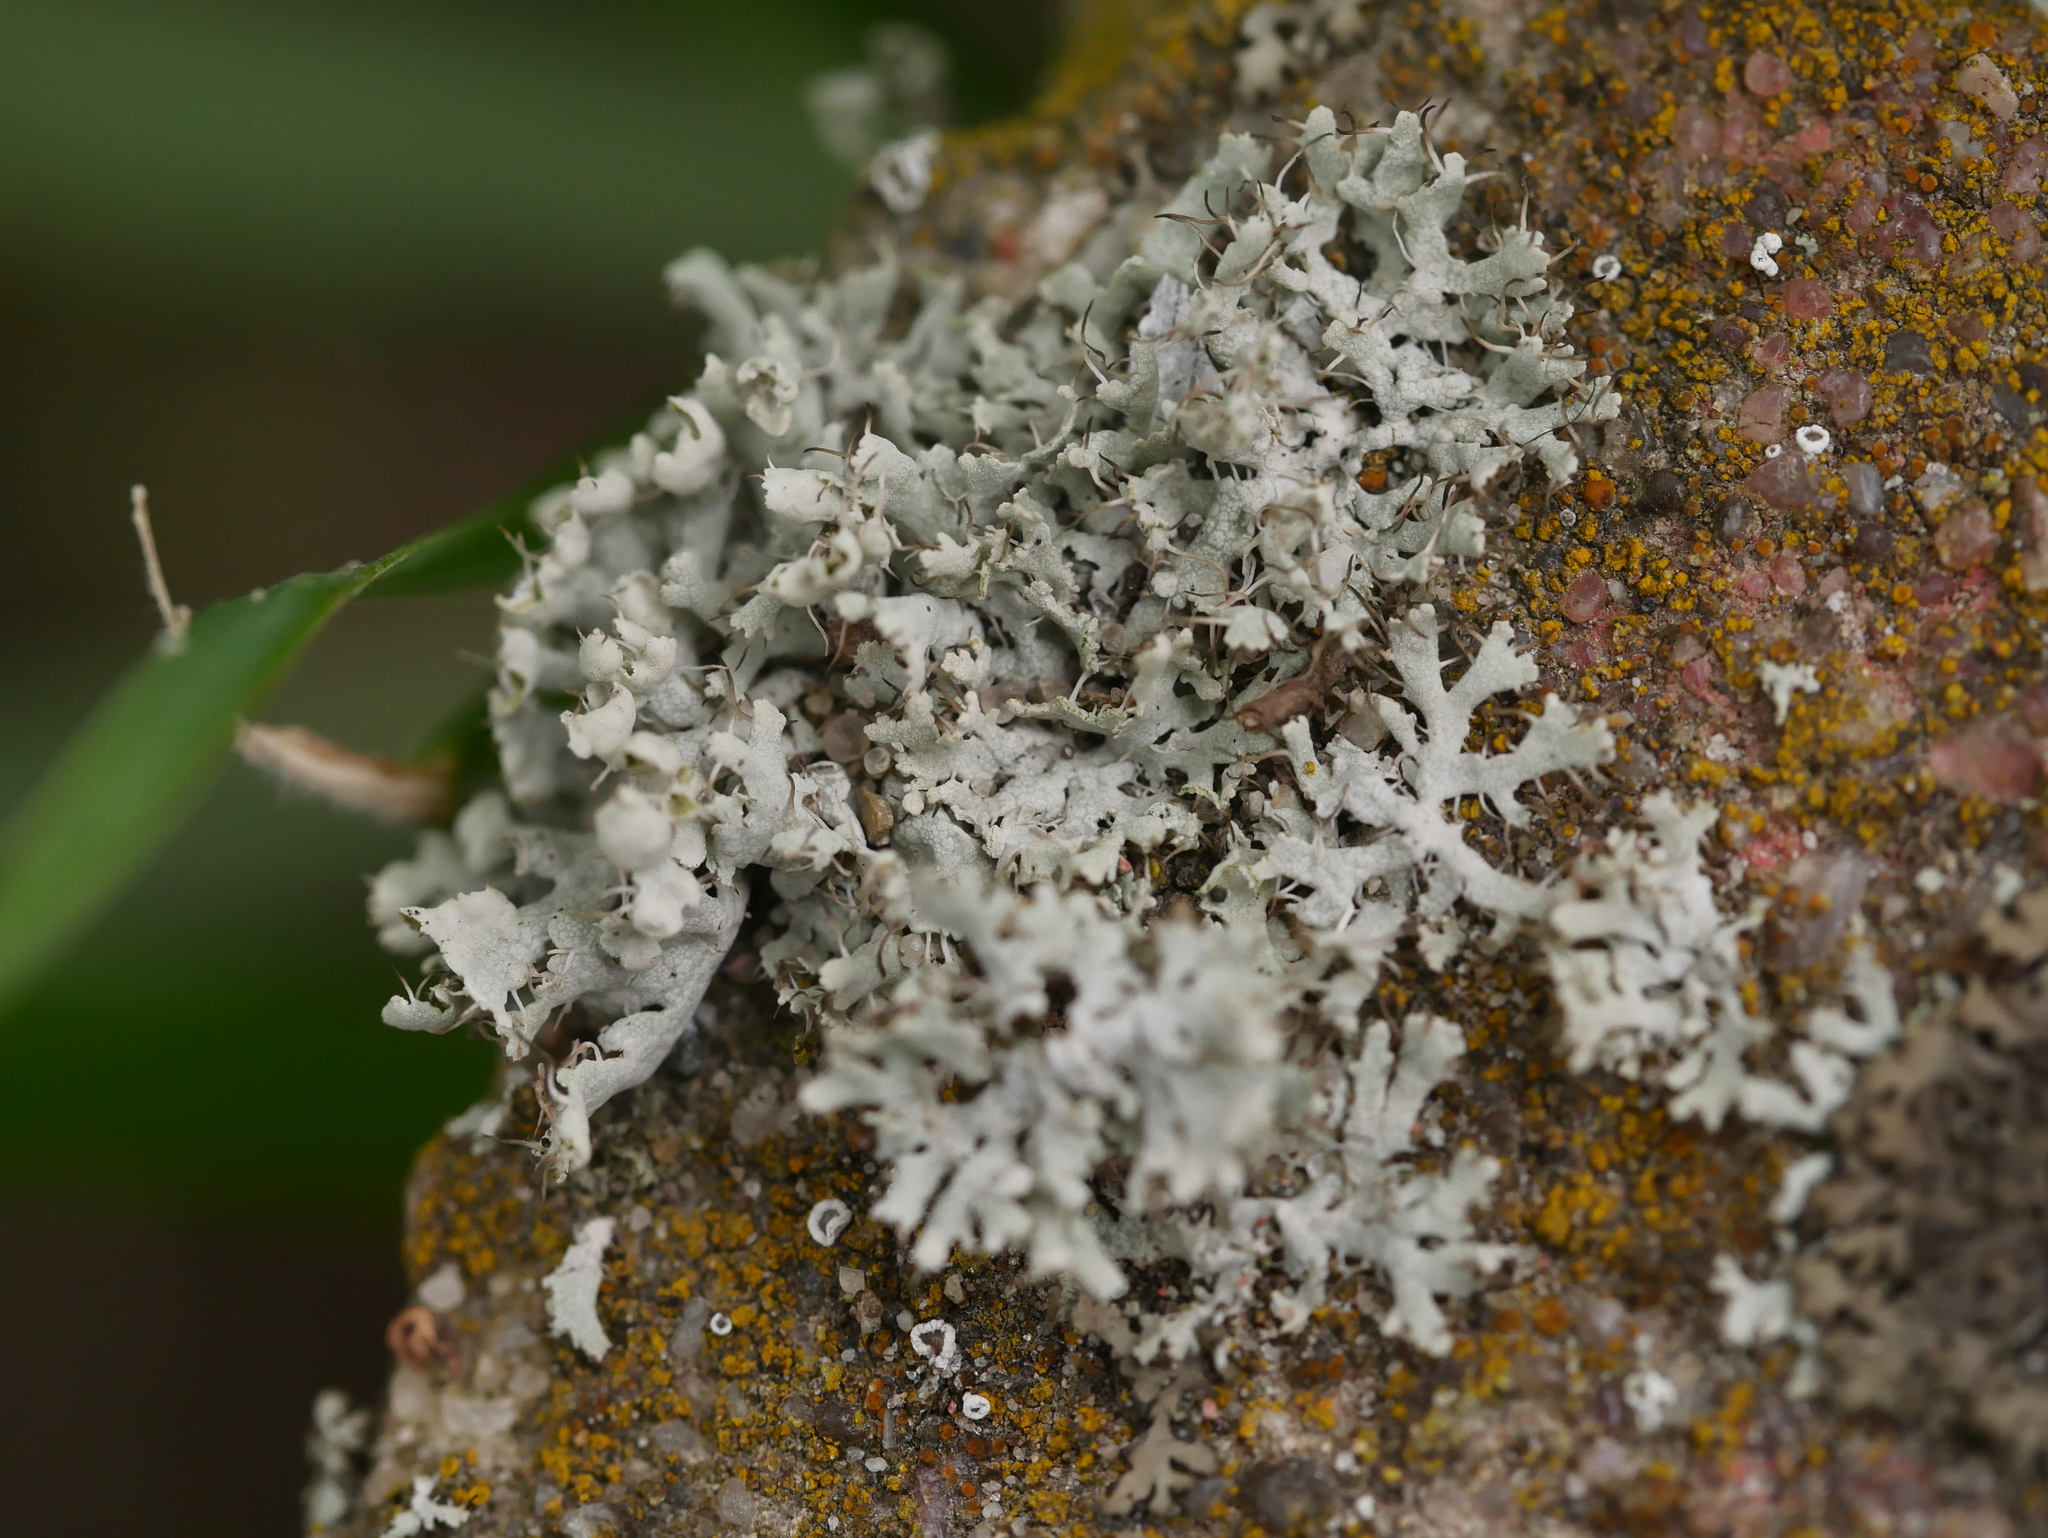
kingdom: Fungi
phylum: Ascomycota
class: Lecanoromycetes
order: Caliciales
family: Physciaceae
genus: Physcia
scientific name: Physcia adscendens
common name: Hooded rosette lichen
